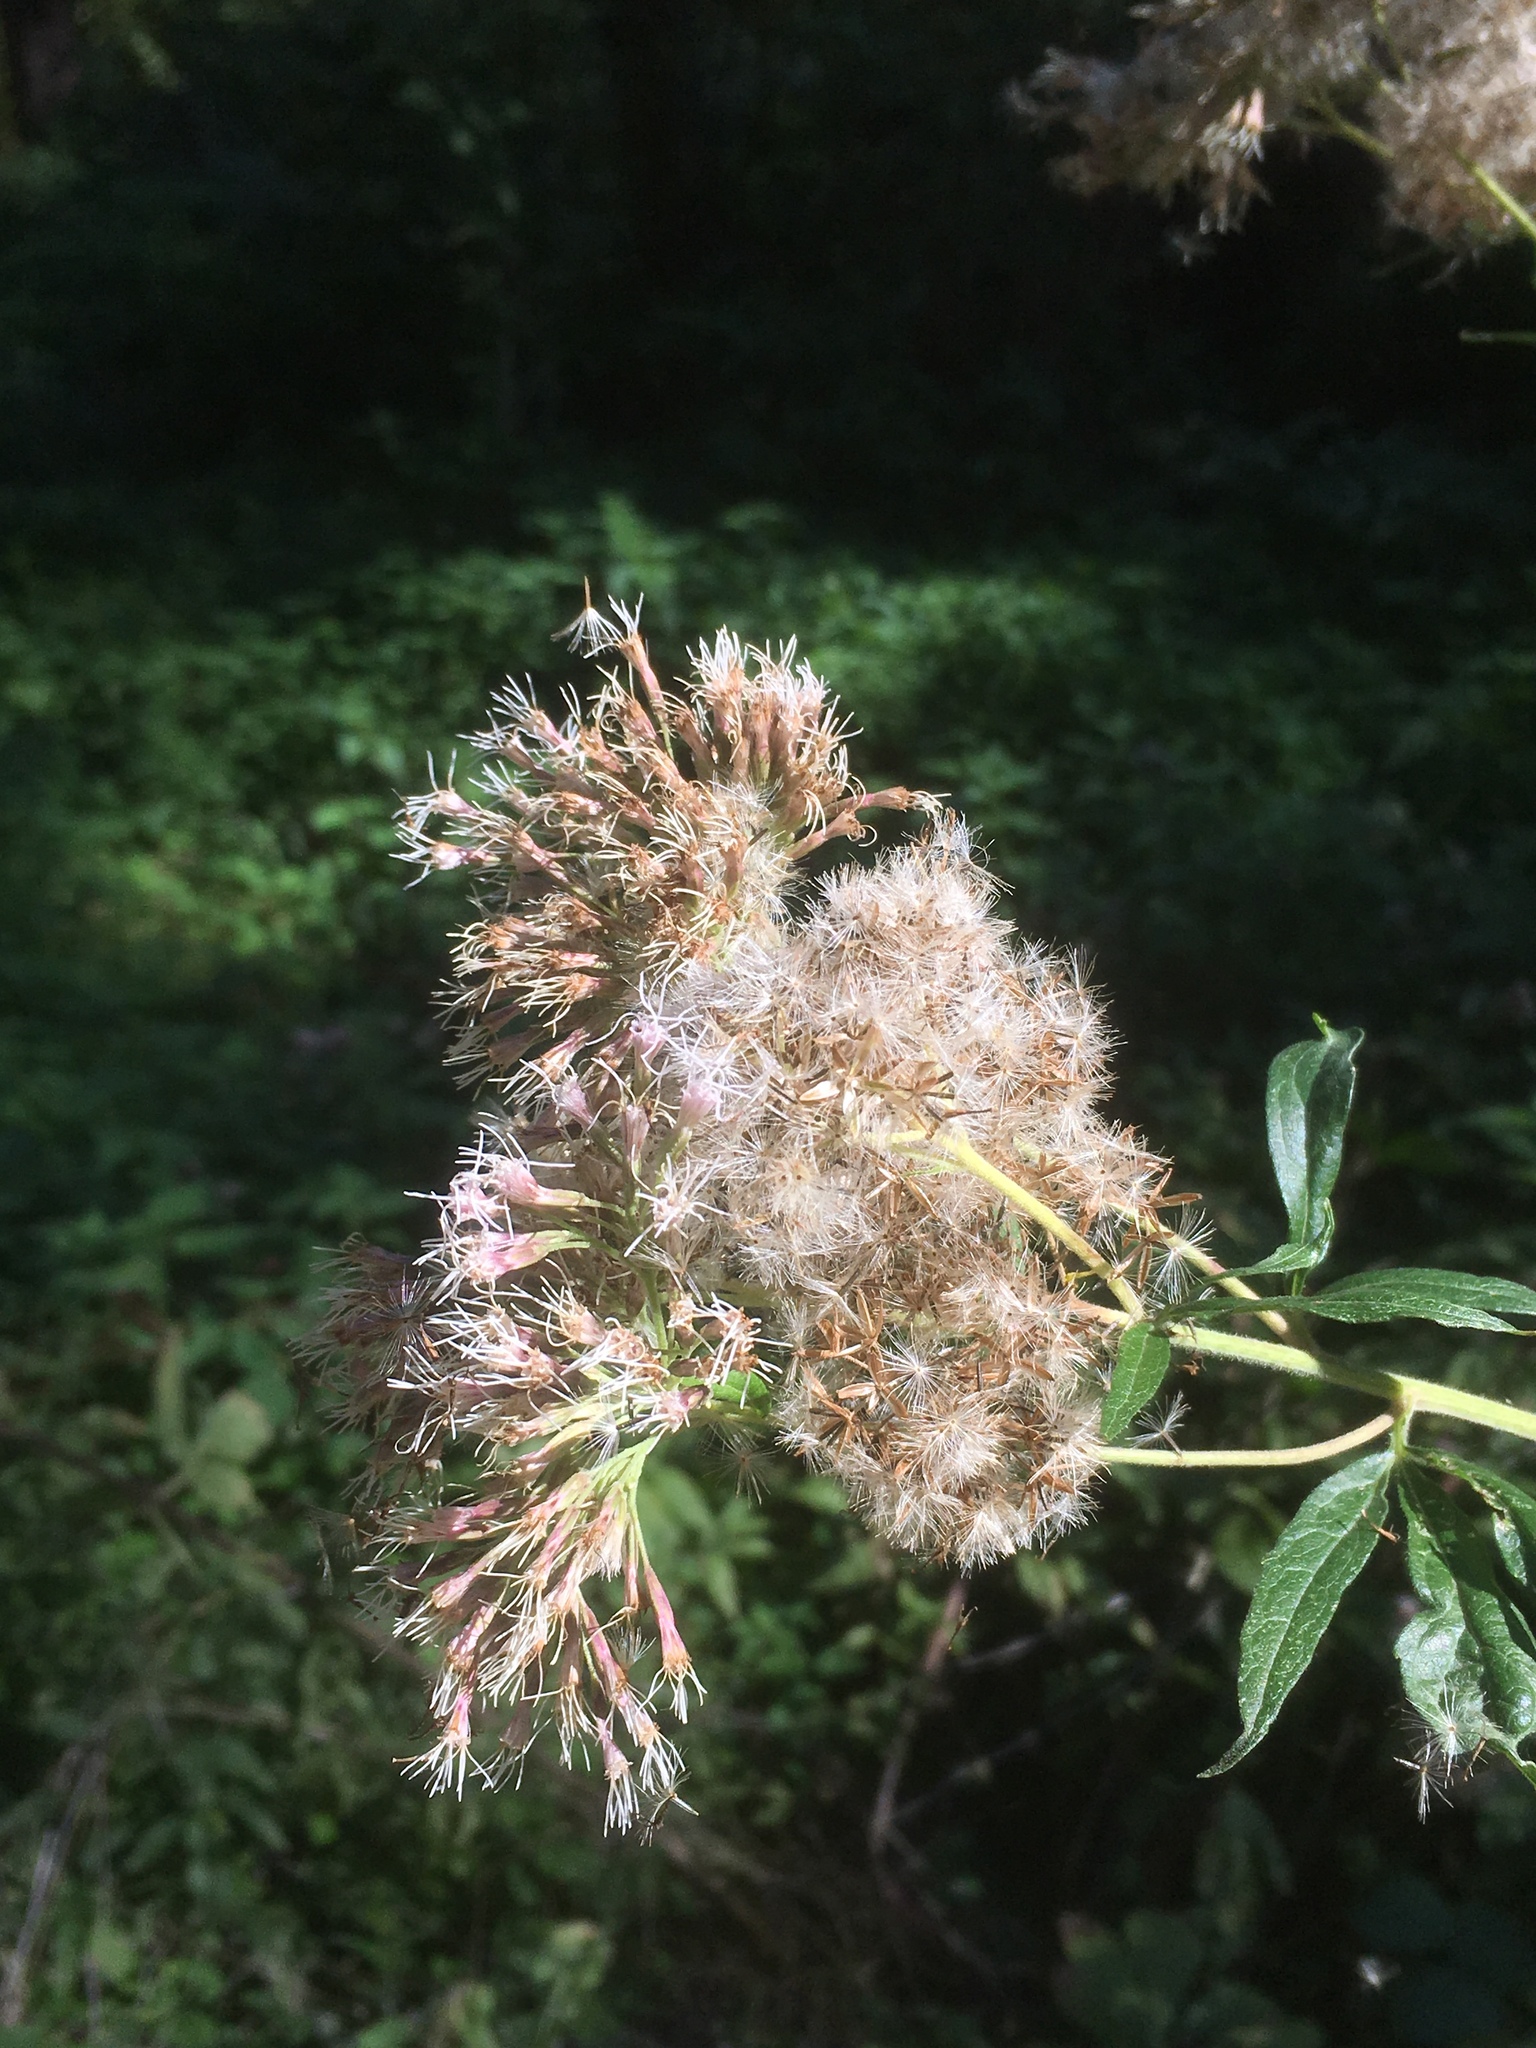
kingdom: Plantae
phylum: Tracheophyta
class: Magnoliopsida
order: Asterales
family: Asteraceae
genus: Eupatorium
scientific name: Eupatorium cannabinum
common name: Hemp-agrimony
